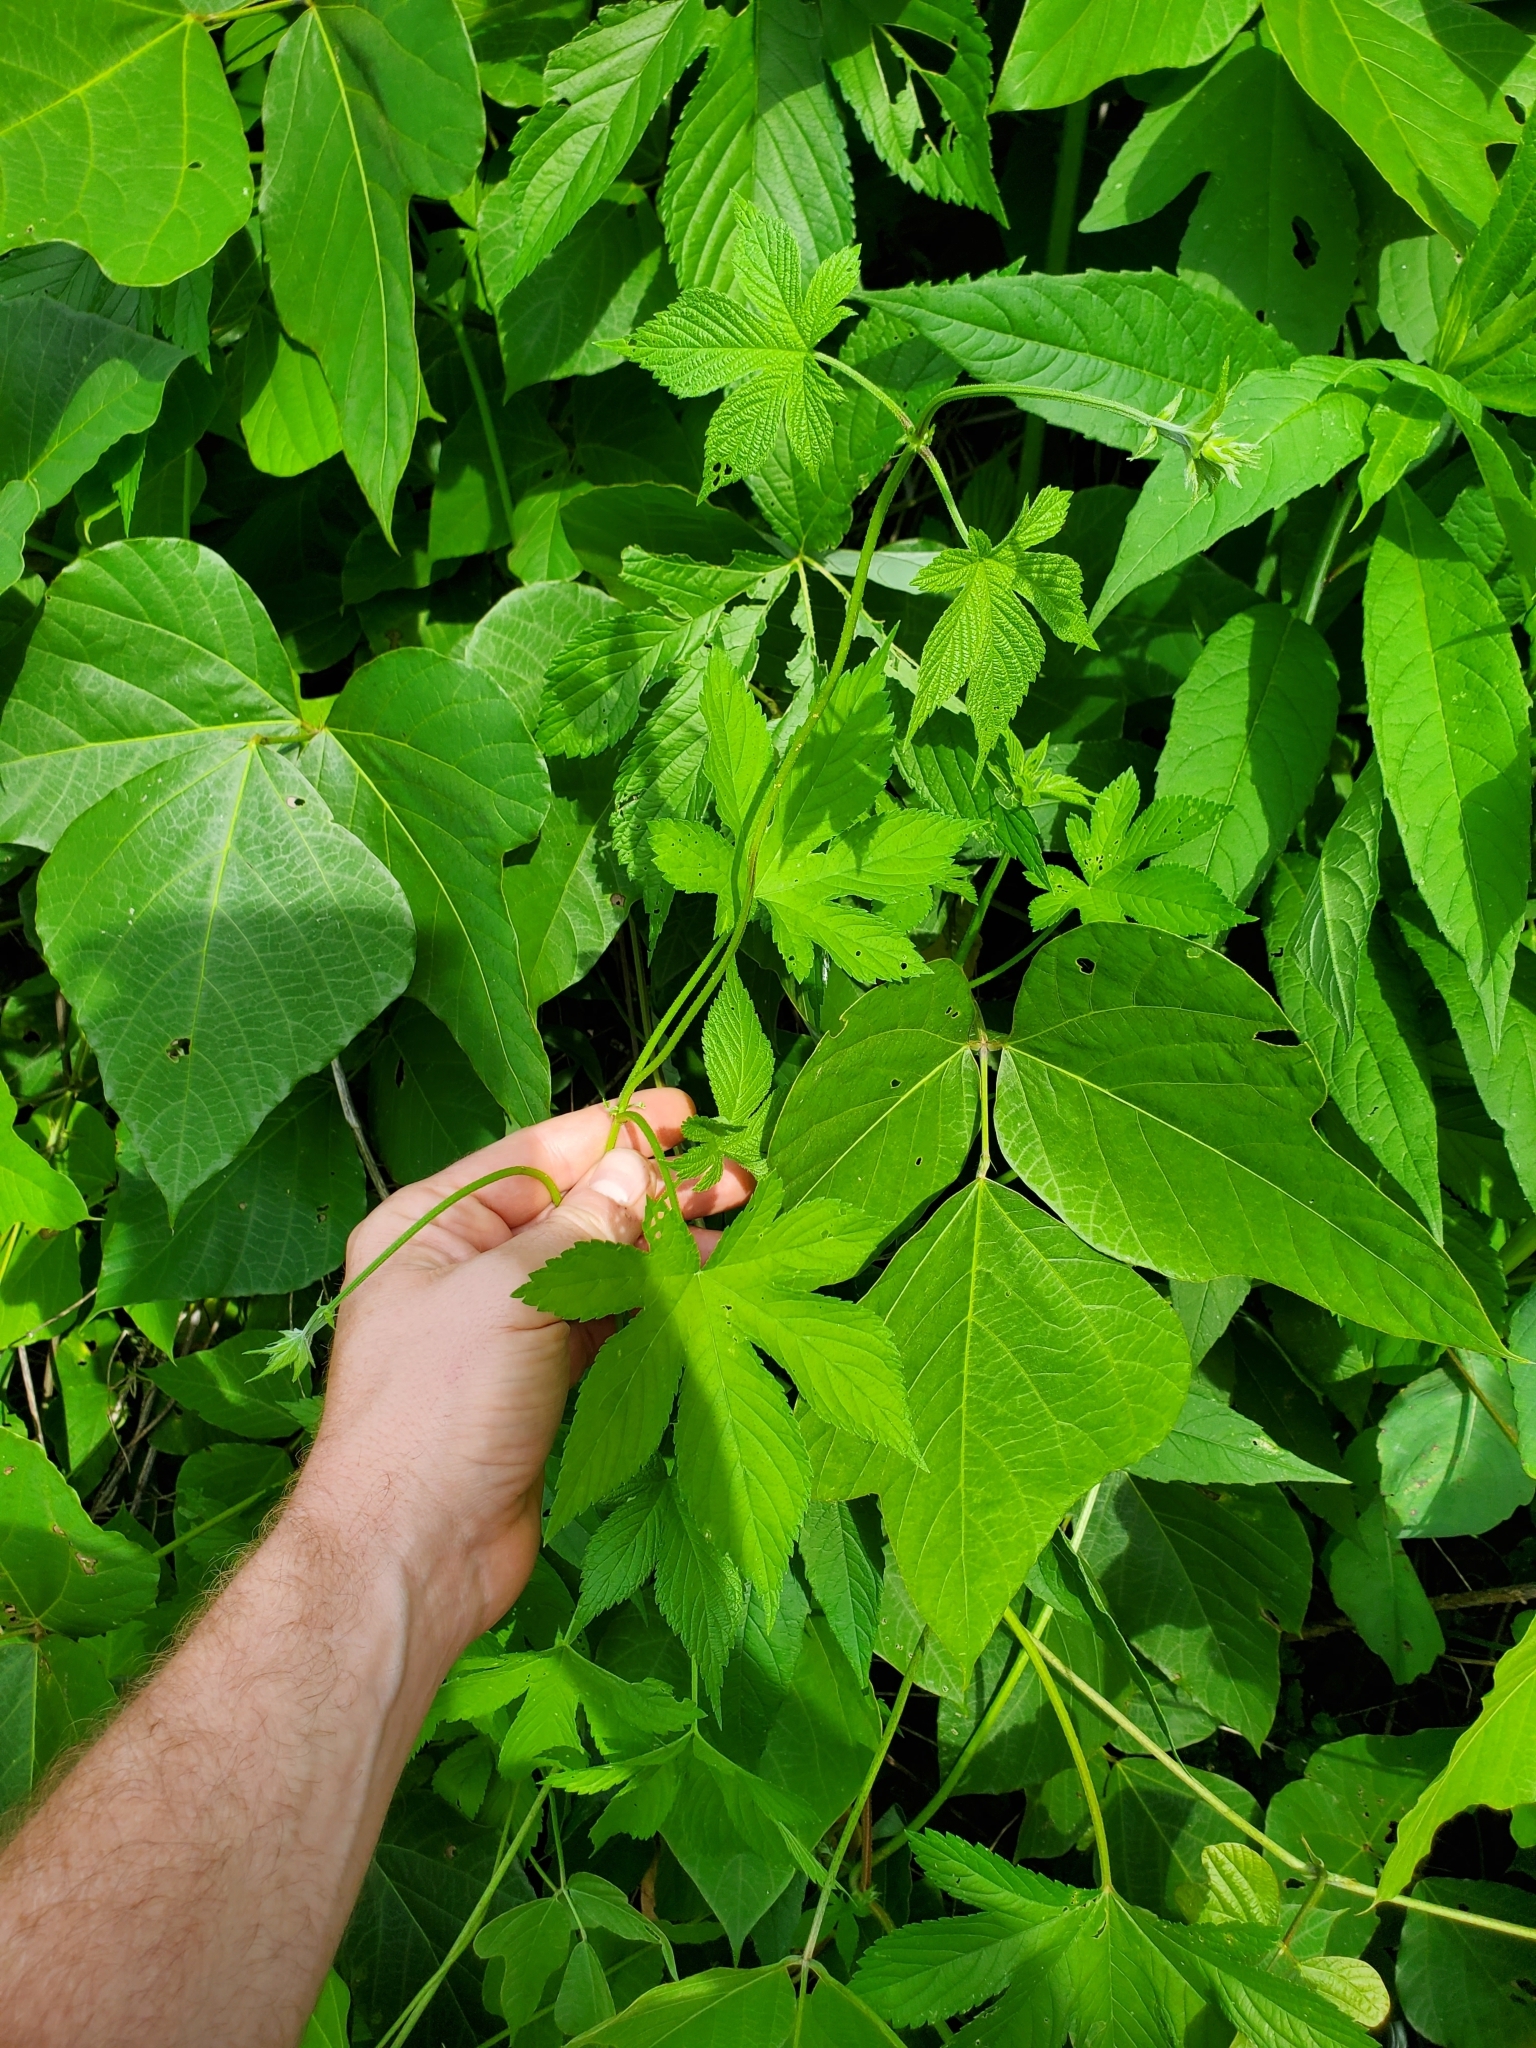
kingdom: Plantae
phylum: Tracheophyta
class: Magnoliopsida
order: Rosales
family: Cannabaceae
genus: Humulus
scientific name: Humulus scandens
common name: Japanese hop
